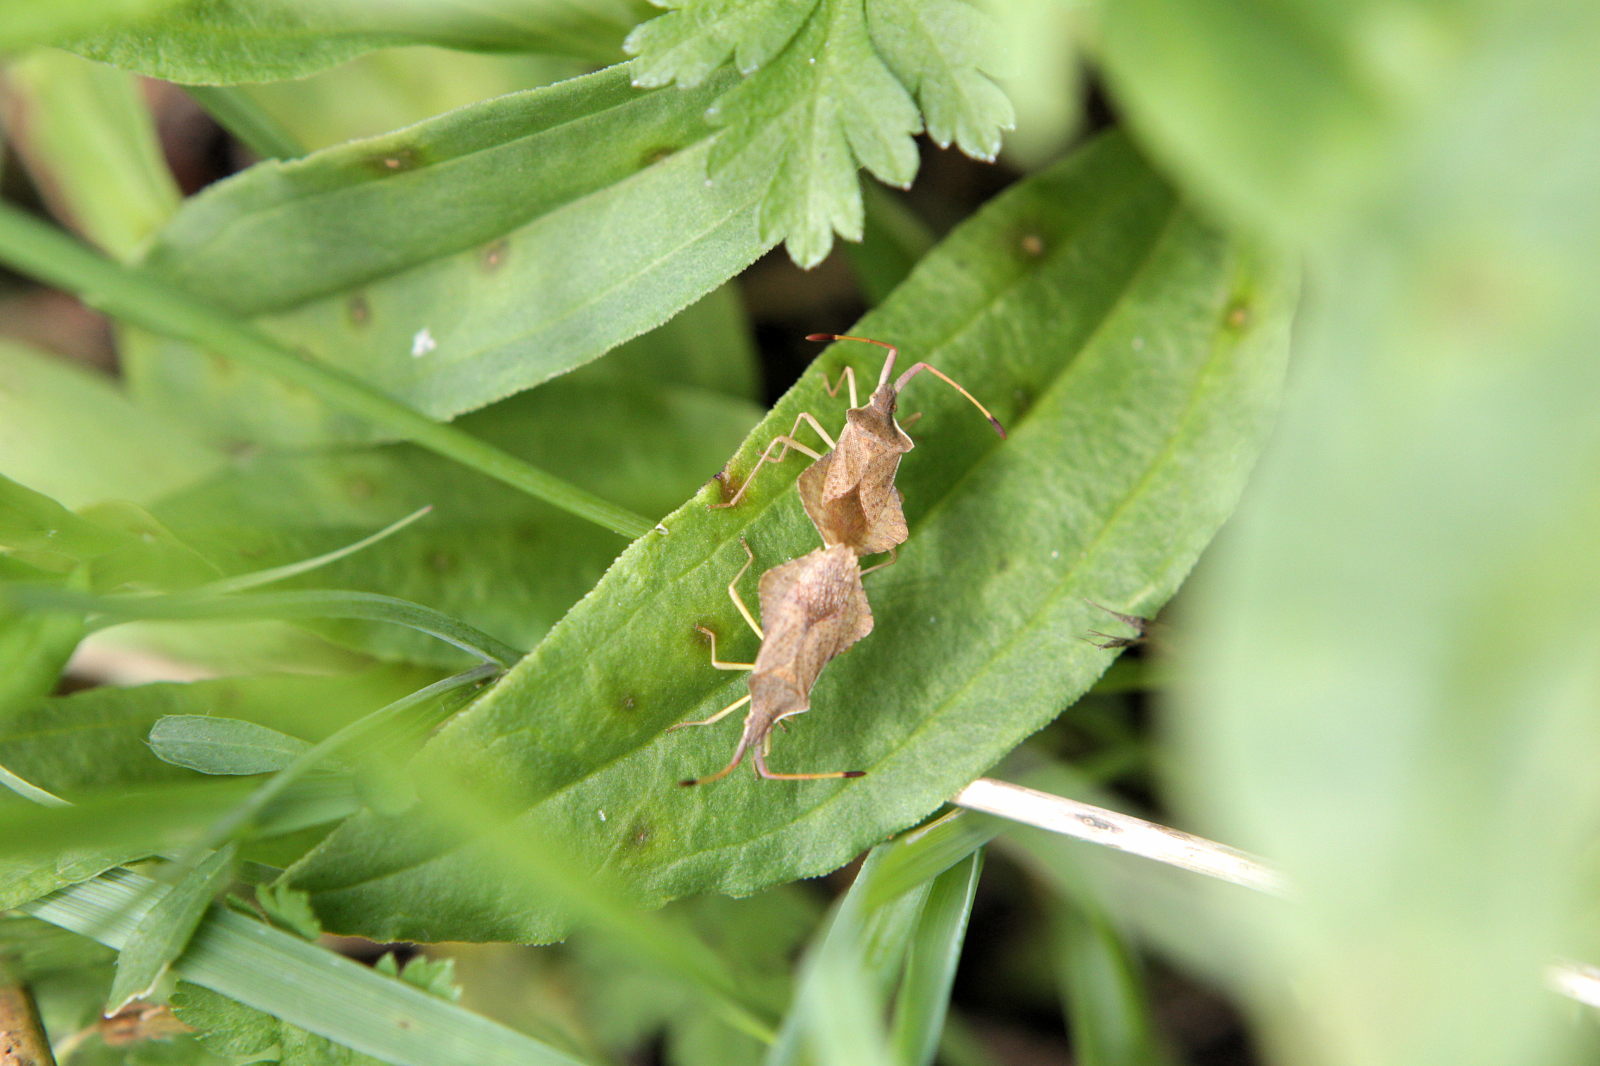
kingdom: Animalia
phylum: Arthropoda
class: Insecta
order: Hemiptera
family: Coreidae
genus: Syromastus
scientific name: Syromastus rhombeus
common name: Rhombic leatherbug
